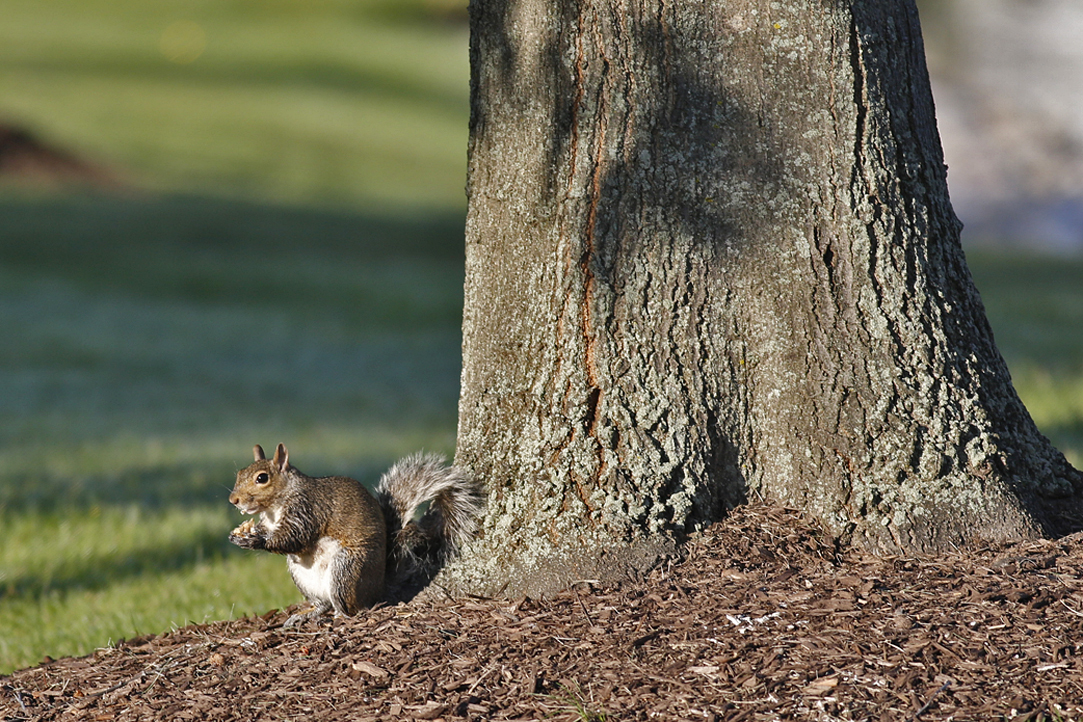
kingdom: Animalia
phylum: Chordata
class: Mammalia
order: Rodentia
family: Sciuridae
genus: Sciurus
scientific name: Sciurus carolinensis
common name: Eastern gray squirrel
